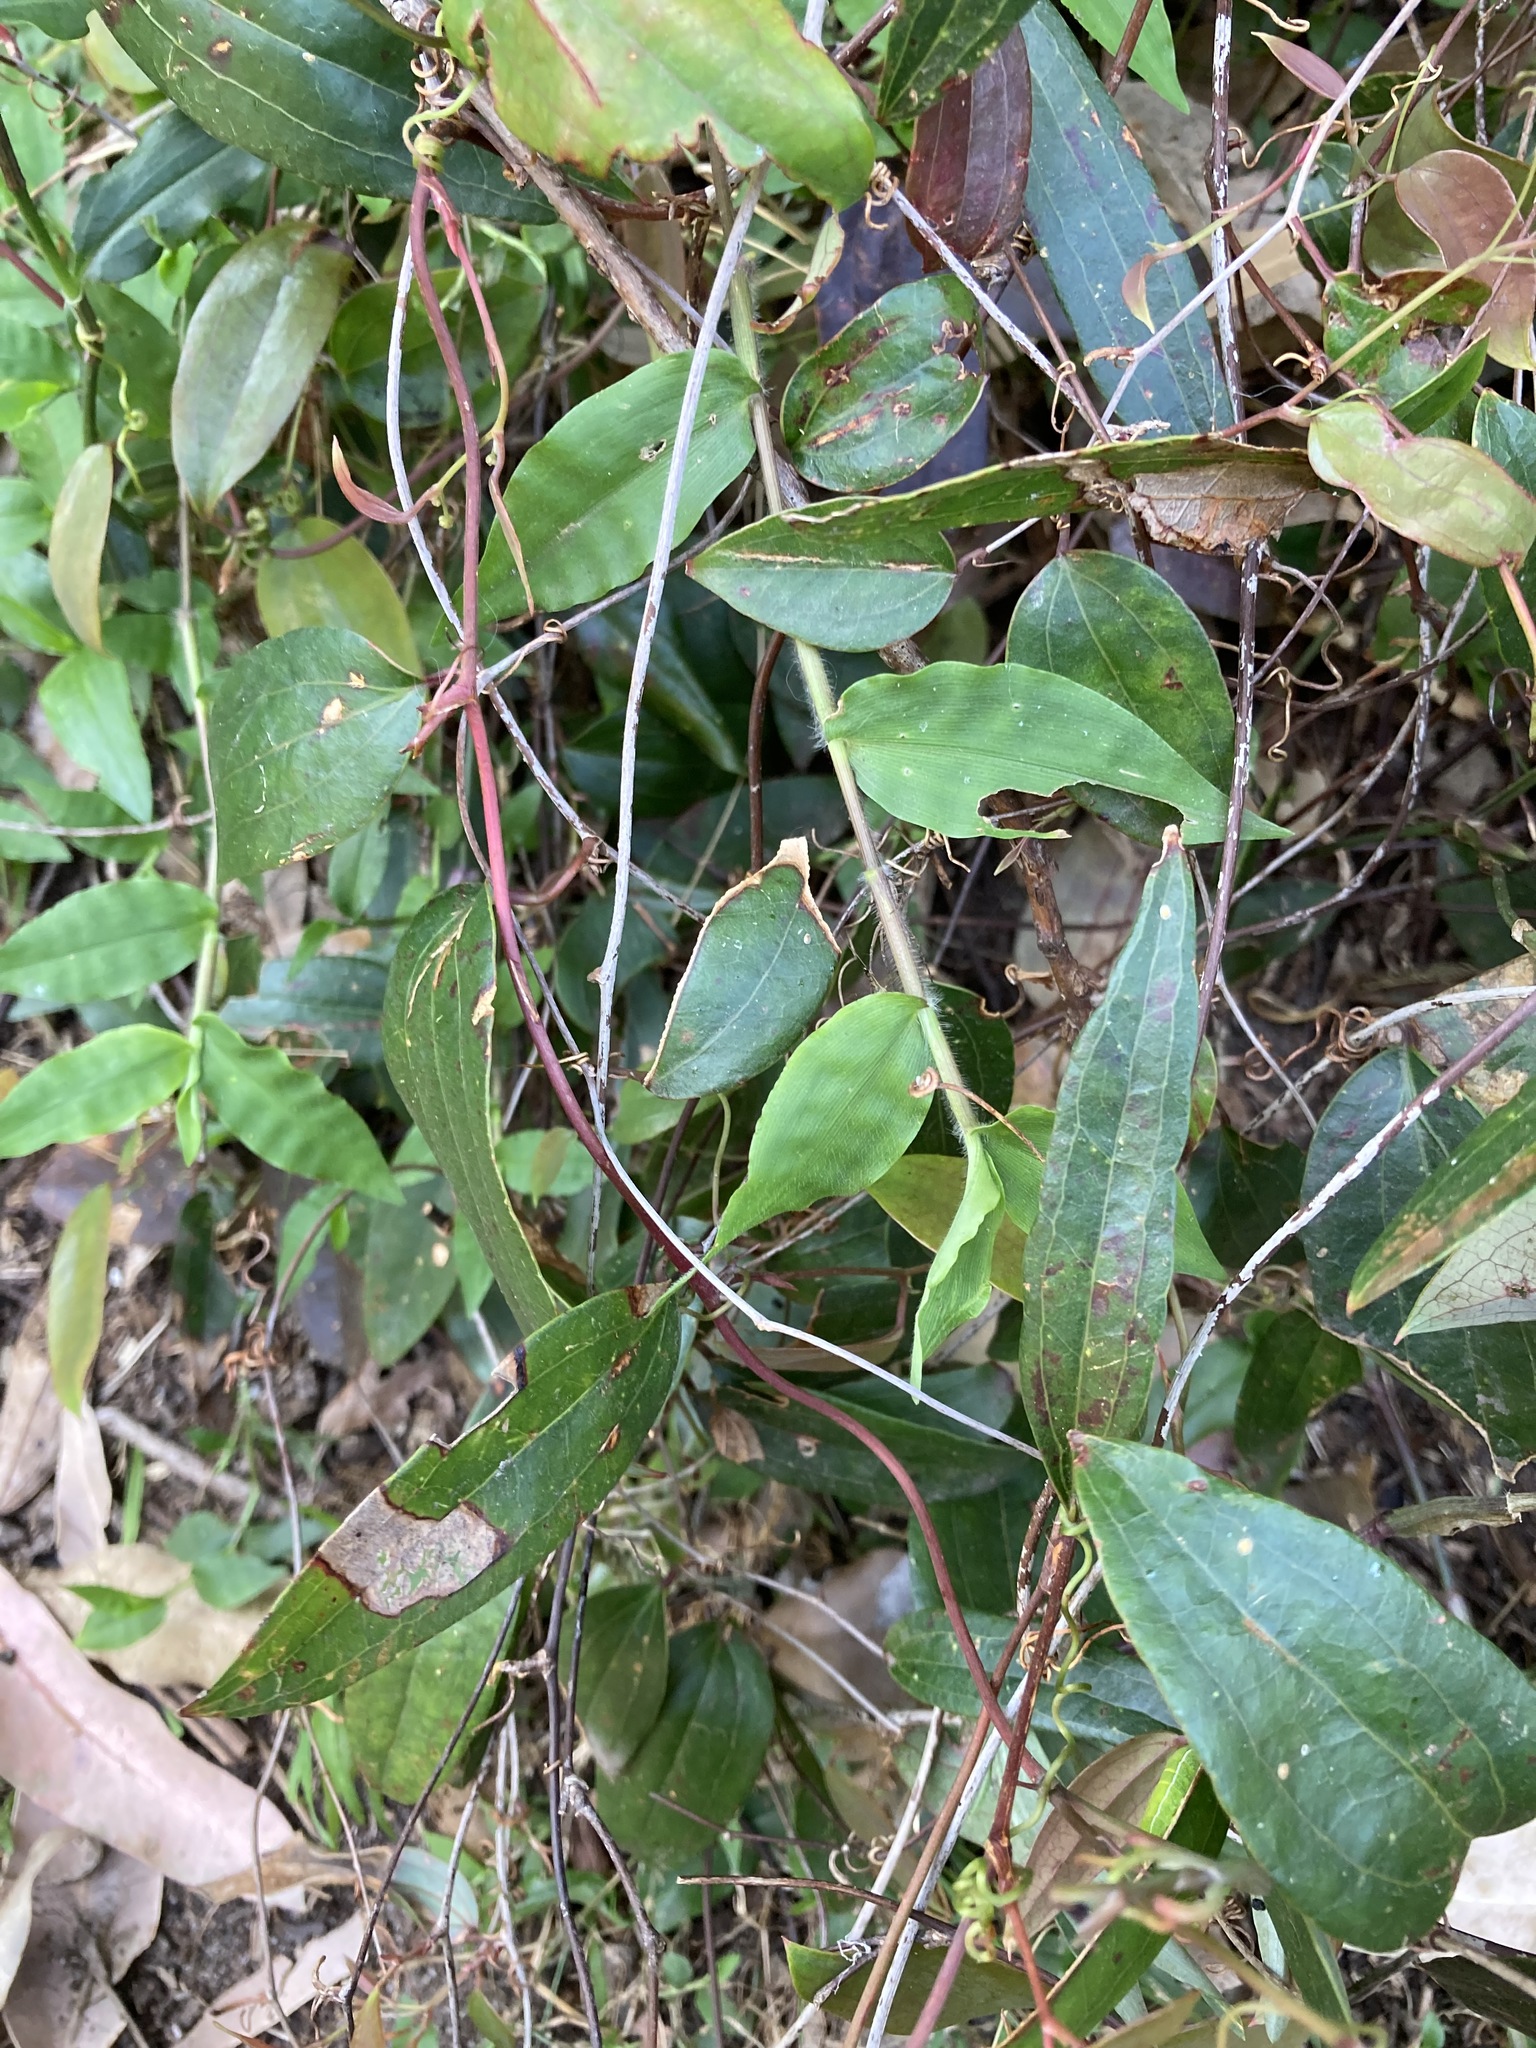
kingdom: Plantae
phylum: Tracheophyta
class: Liliopsida
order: Liliales
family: Smilacaceae
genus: Smilax
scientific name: Smilax glyciphylla
